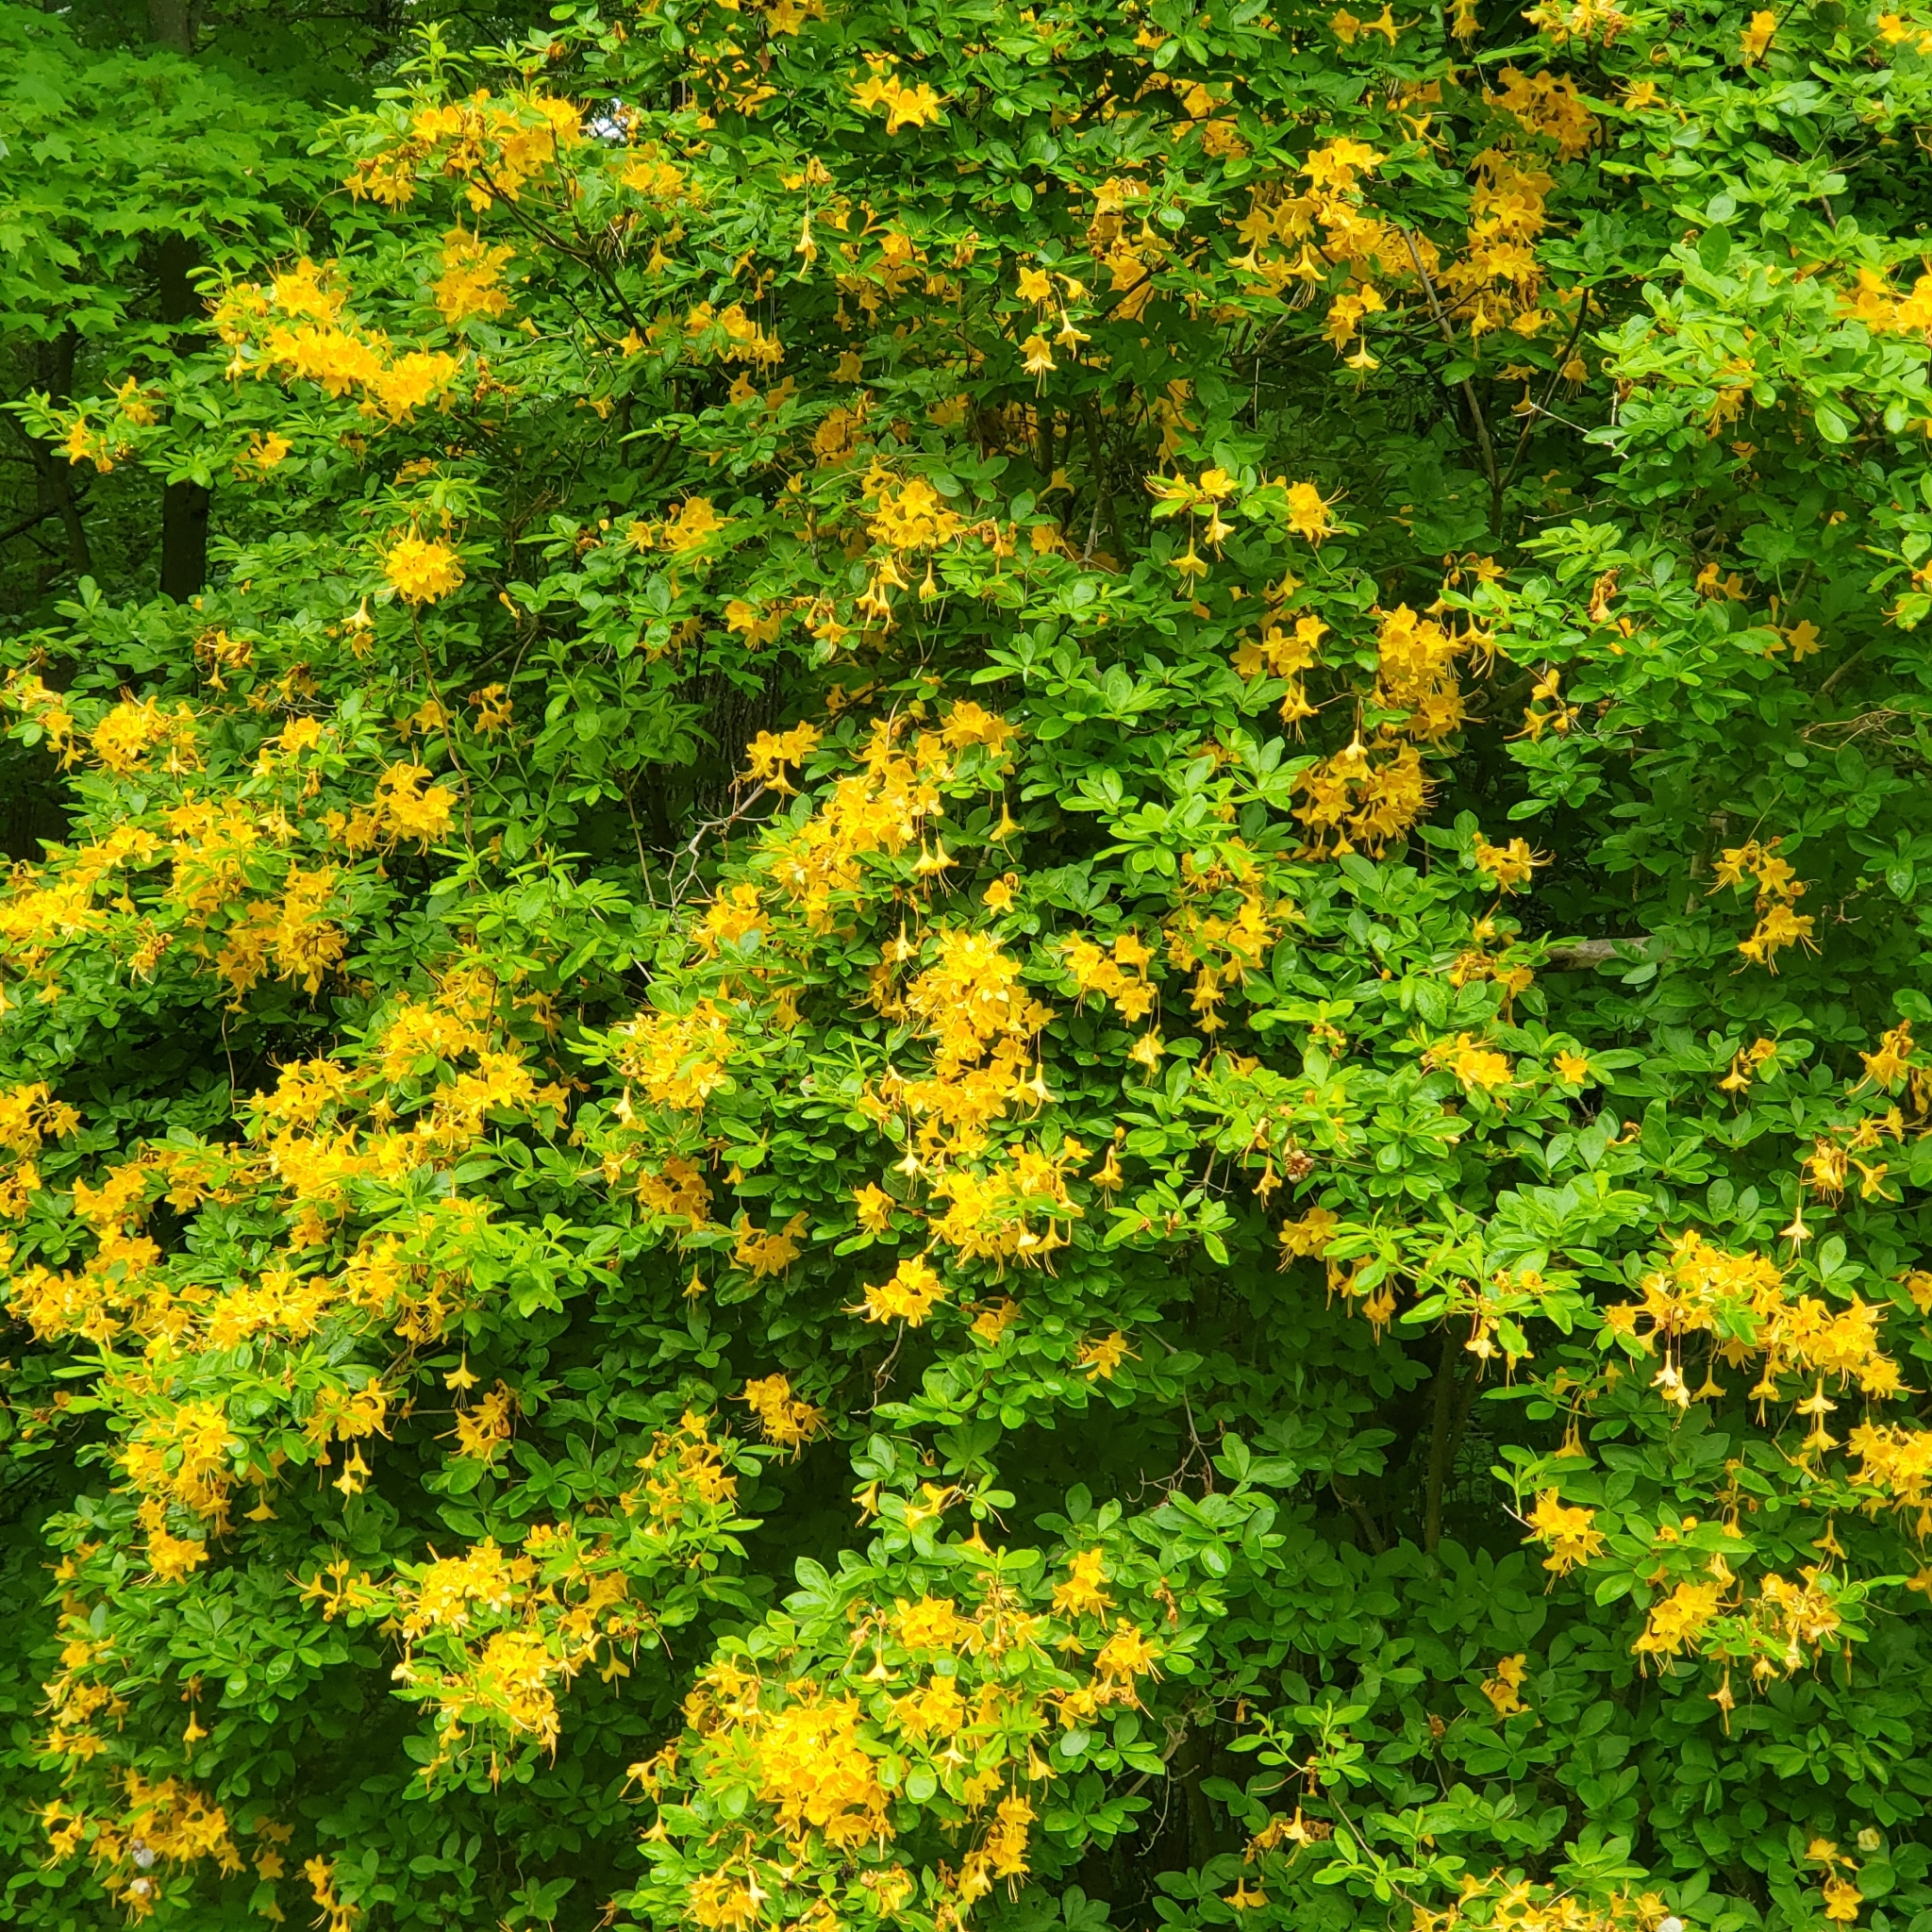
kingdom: Plantae
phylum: Tracheophyta
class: Magnoliopsida
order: Ericales
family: Ericaceae
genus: Rhododendron
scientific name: Rhododendron calendulaceum
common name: Flame azalea
